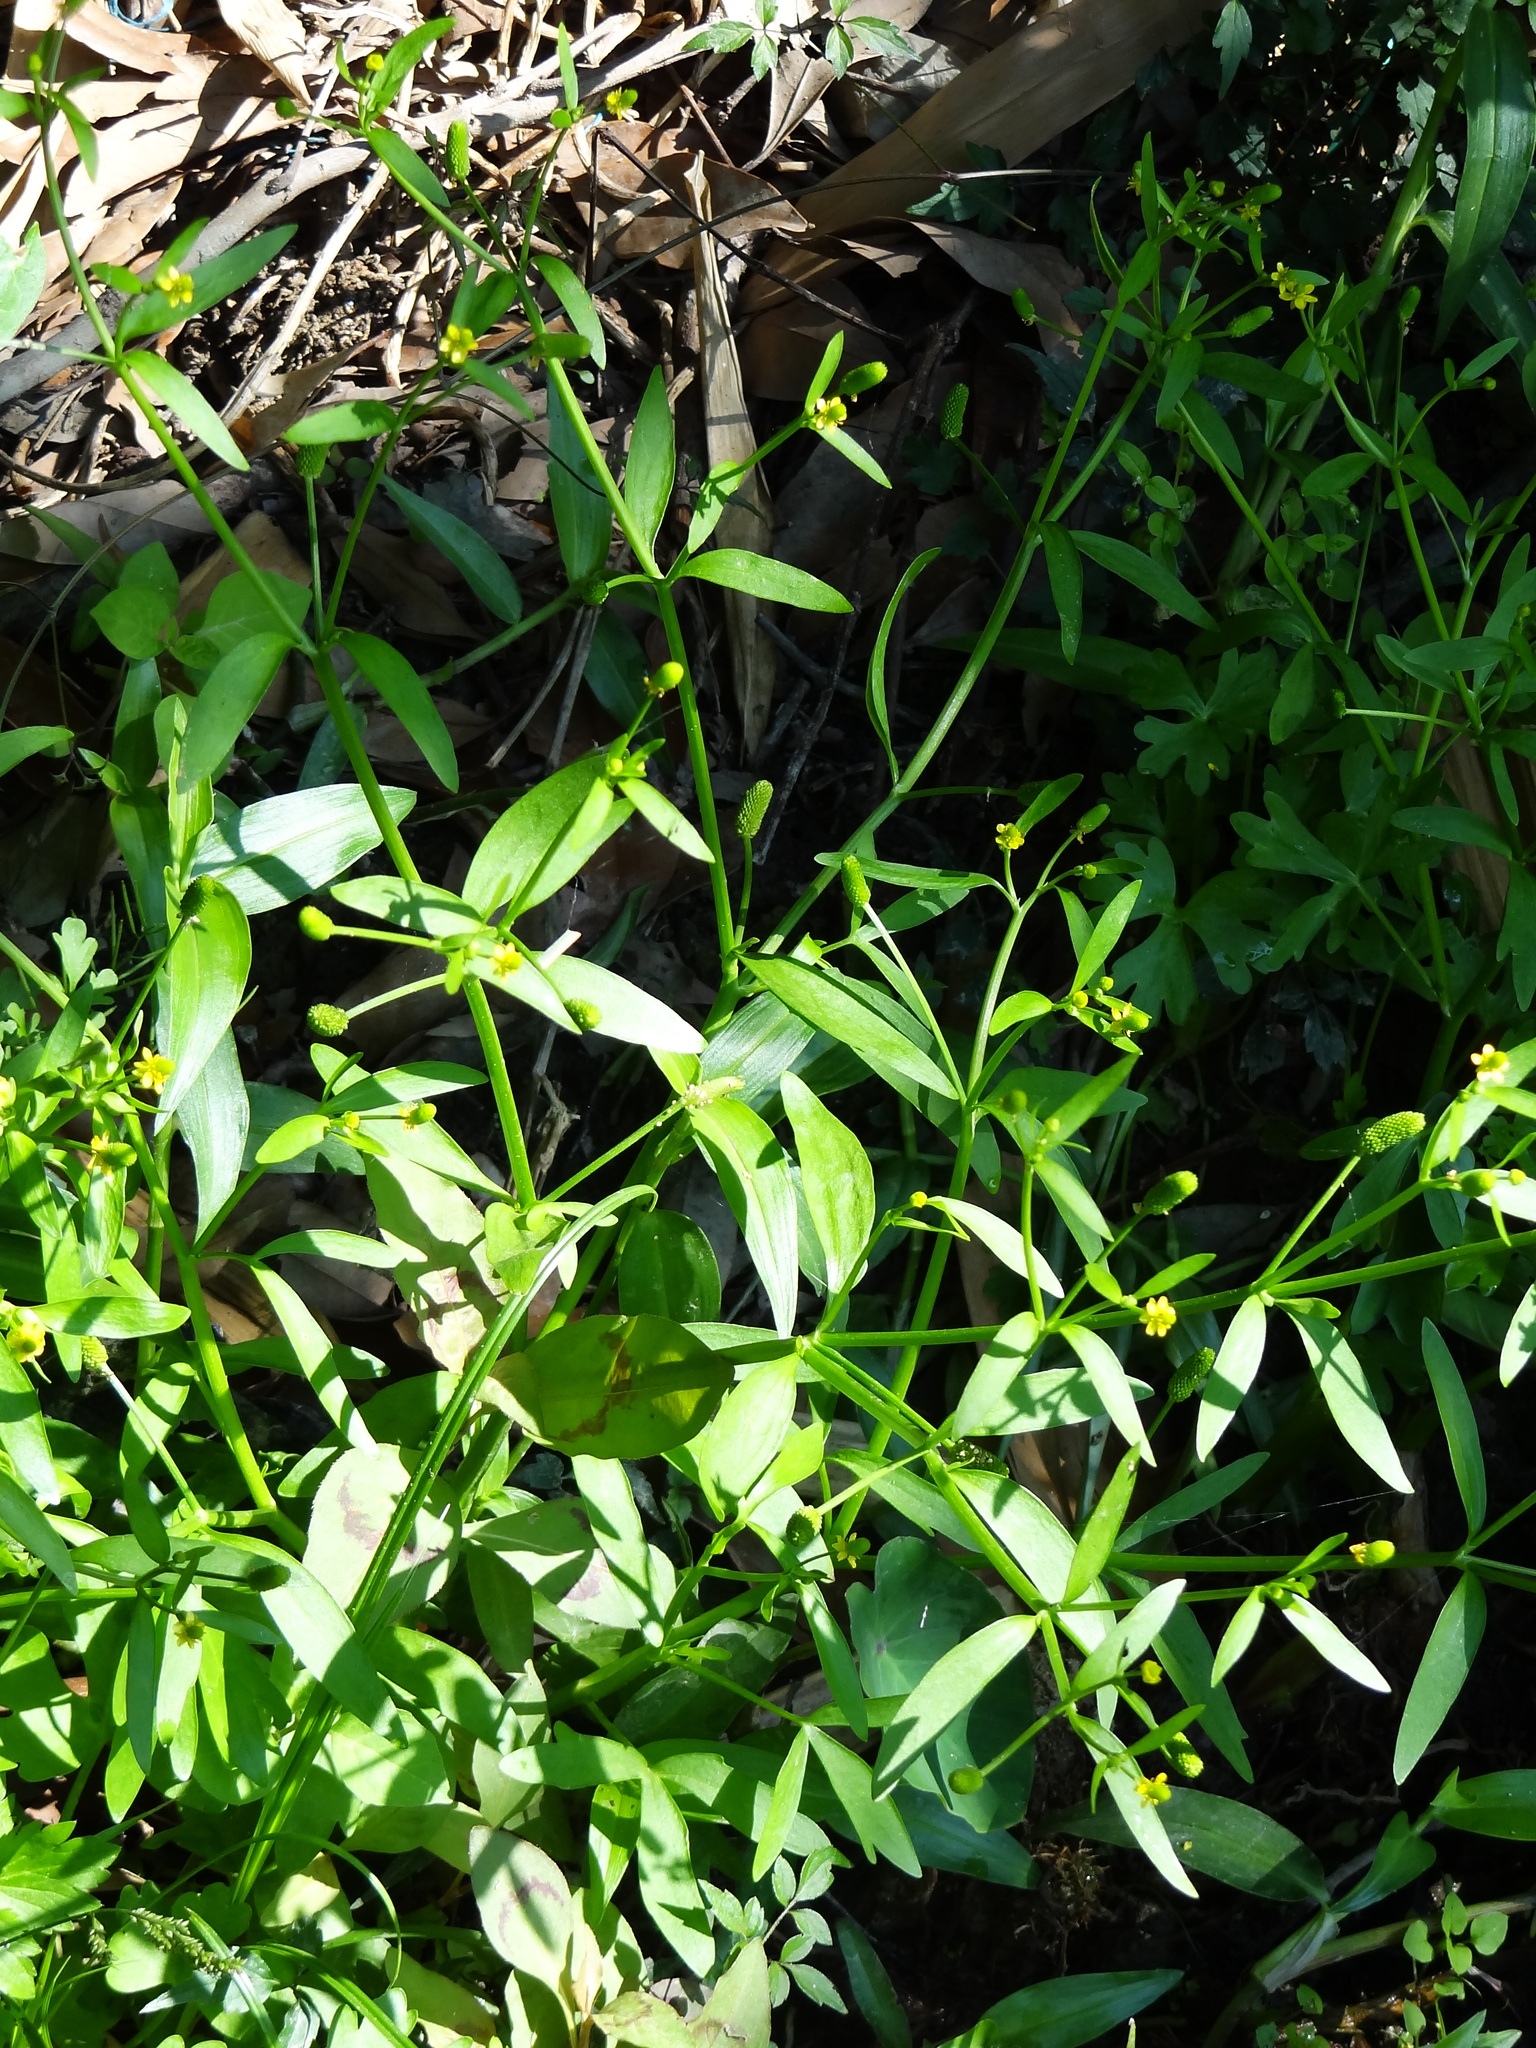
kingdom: Plantae
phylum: Tracheophyta
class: Magnoliopsida
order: Ranunculales
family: Ranunculaceae
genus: Ranunculus
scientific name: Ranunculus sceleratus
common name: Celery-leaved buttercup
